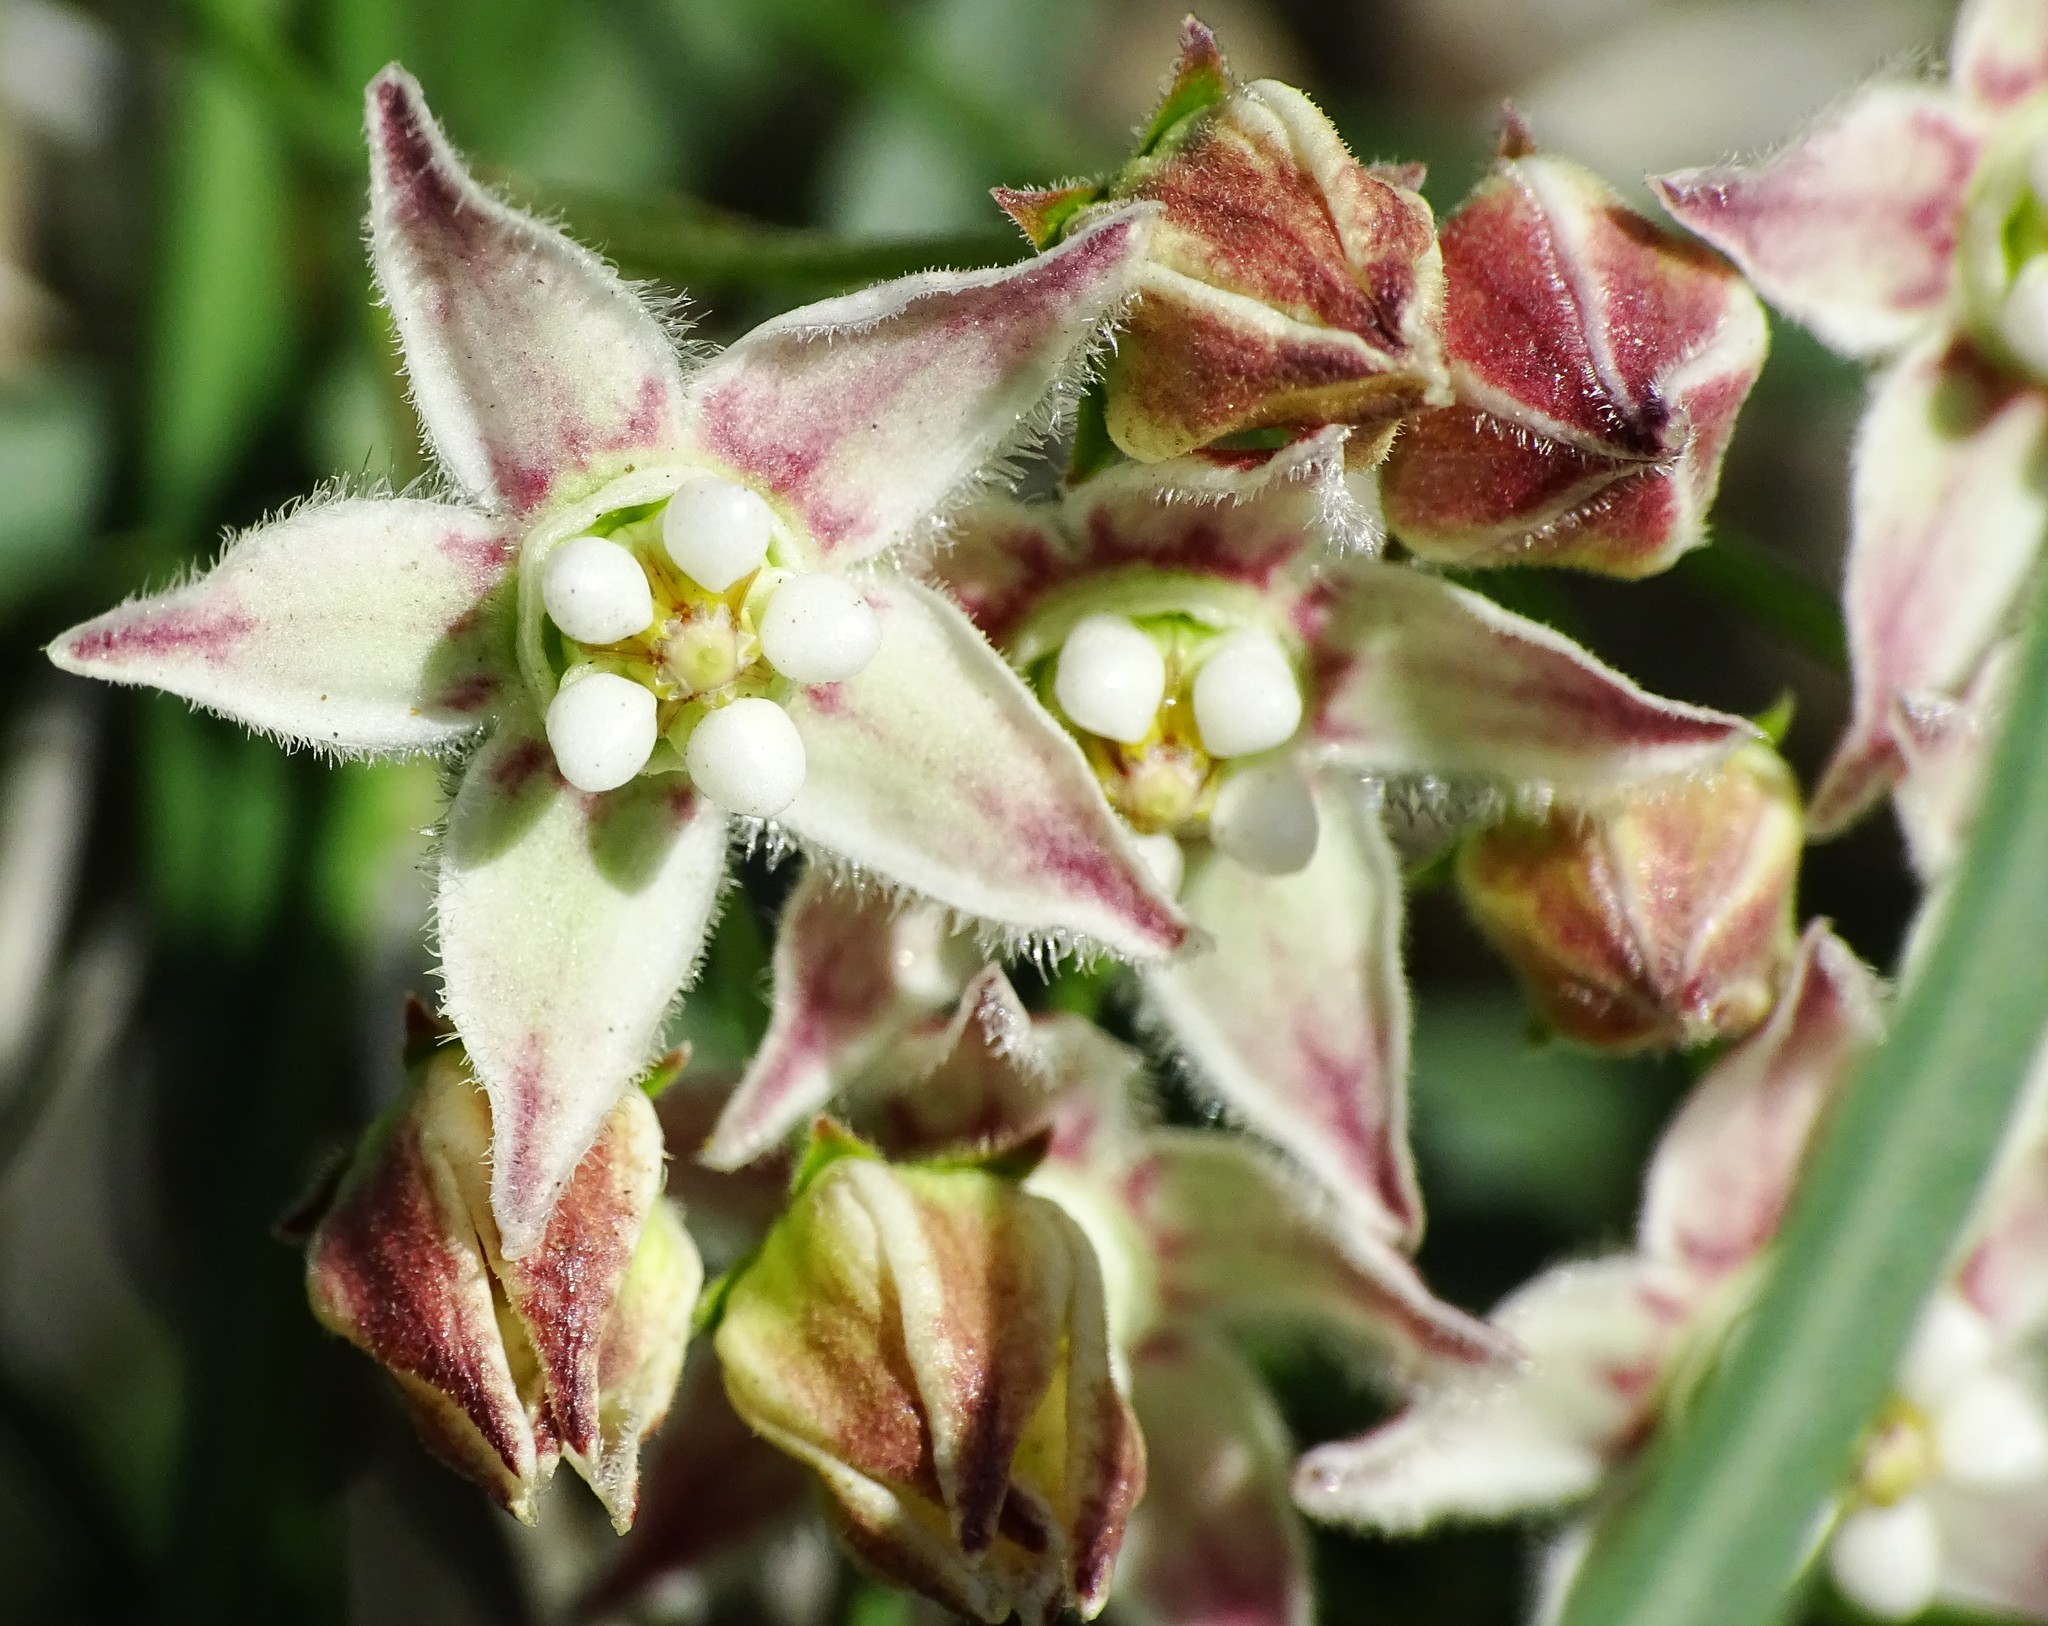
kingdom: Plantae
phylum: Tracheophyta
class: Magnoliopsida
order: Gentianales
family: Apocynaceae
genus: Funastrum
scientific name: Funastrum heterophyllum
